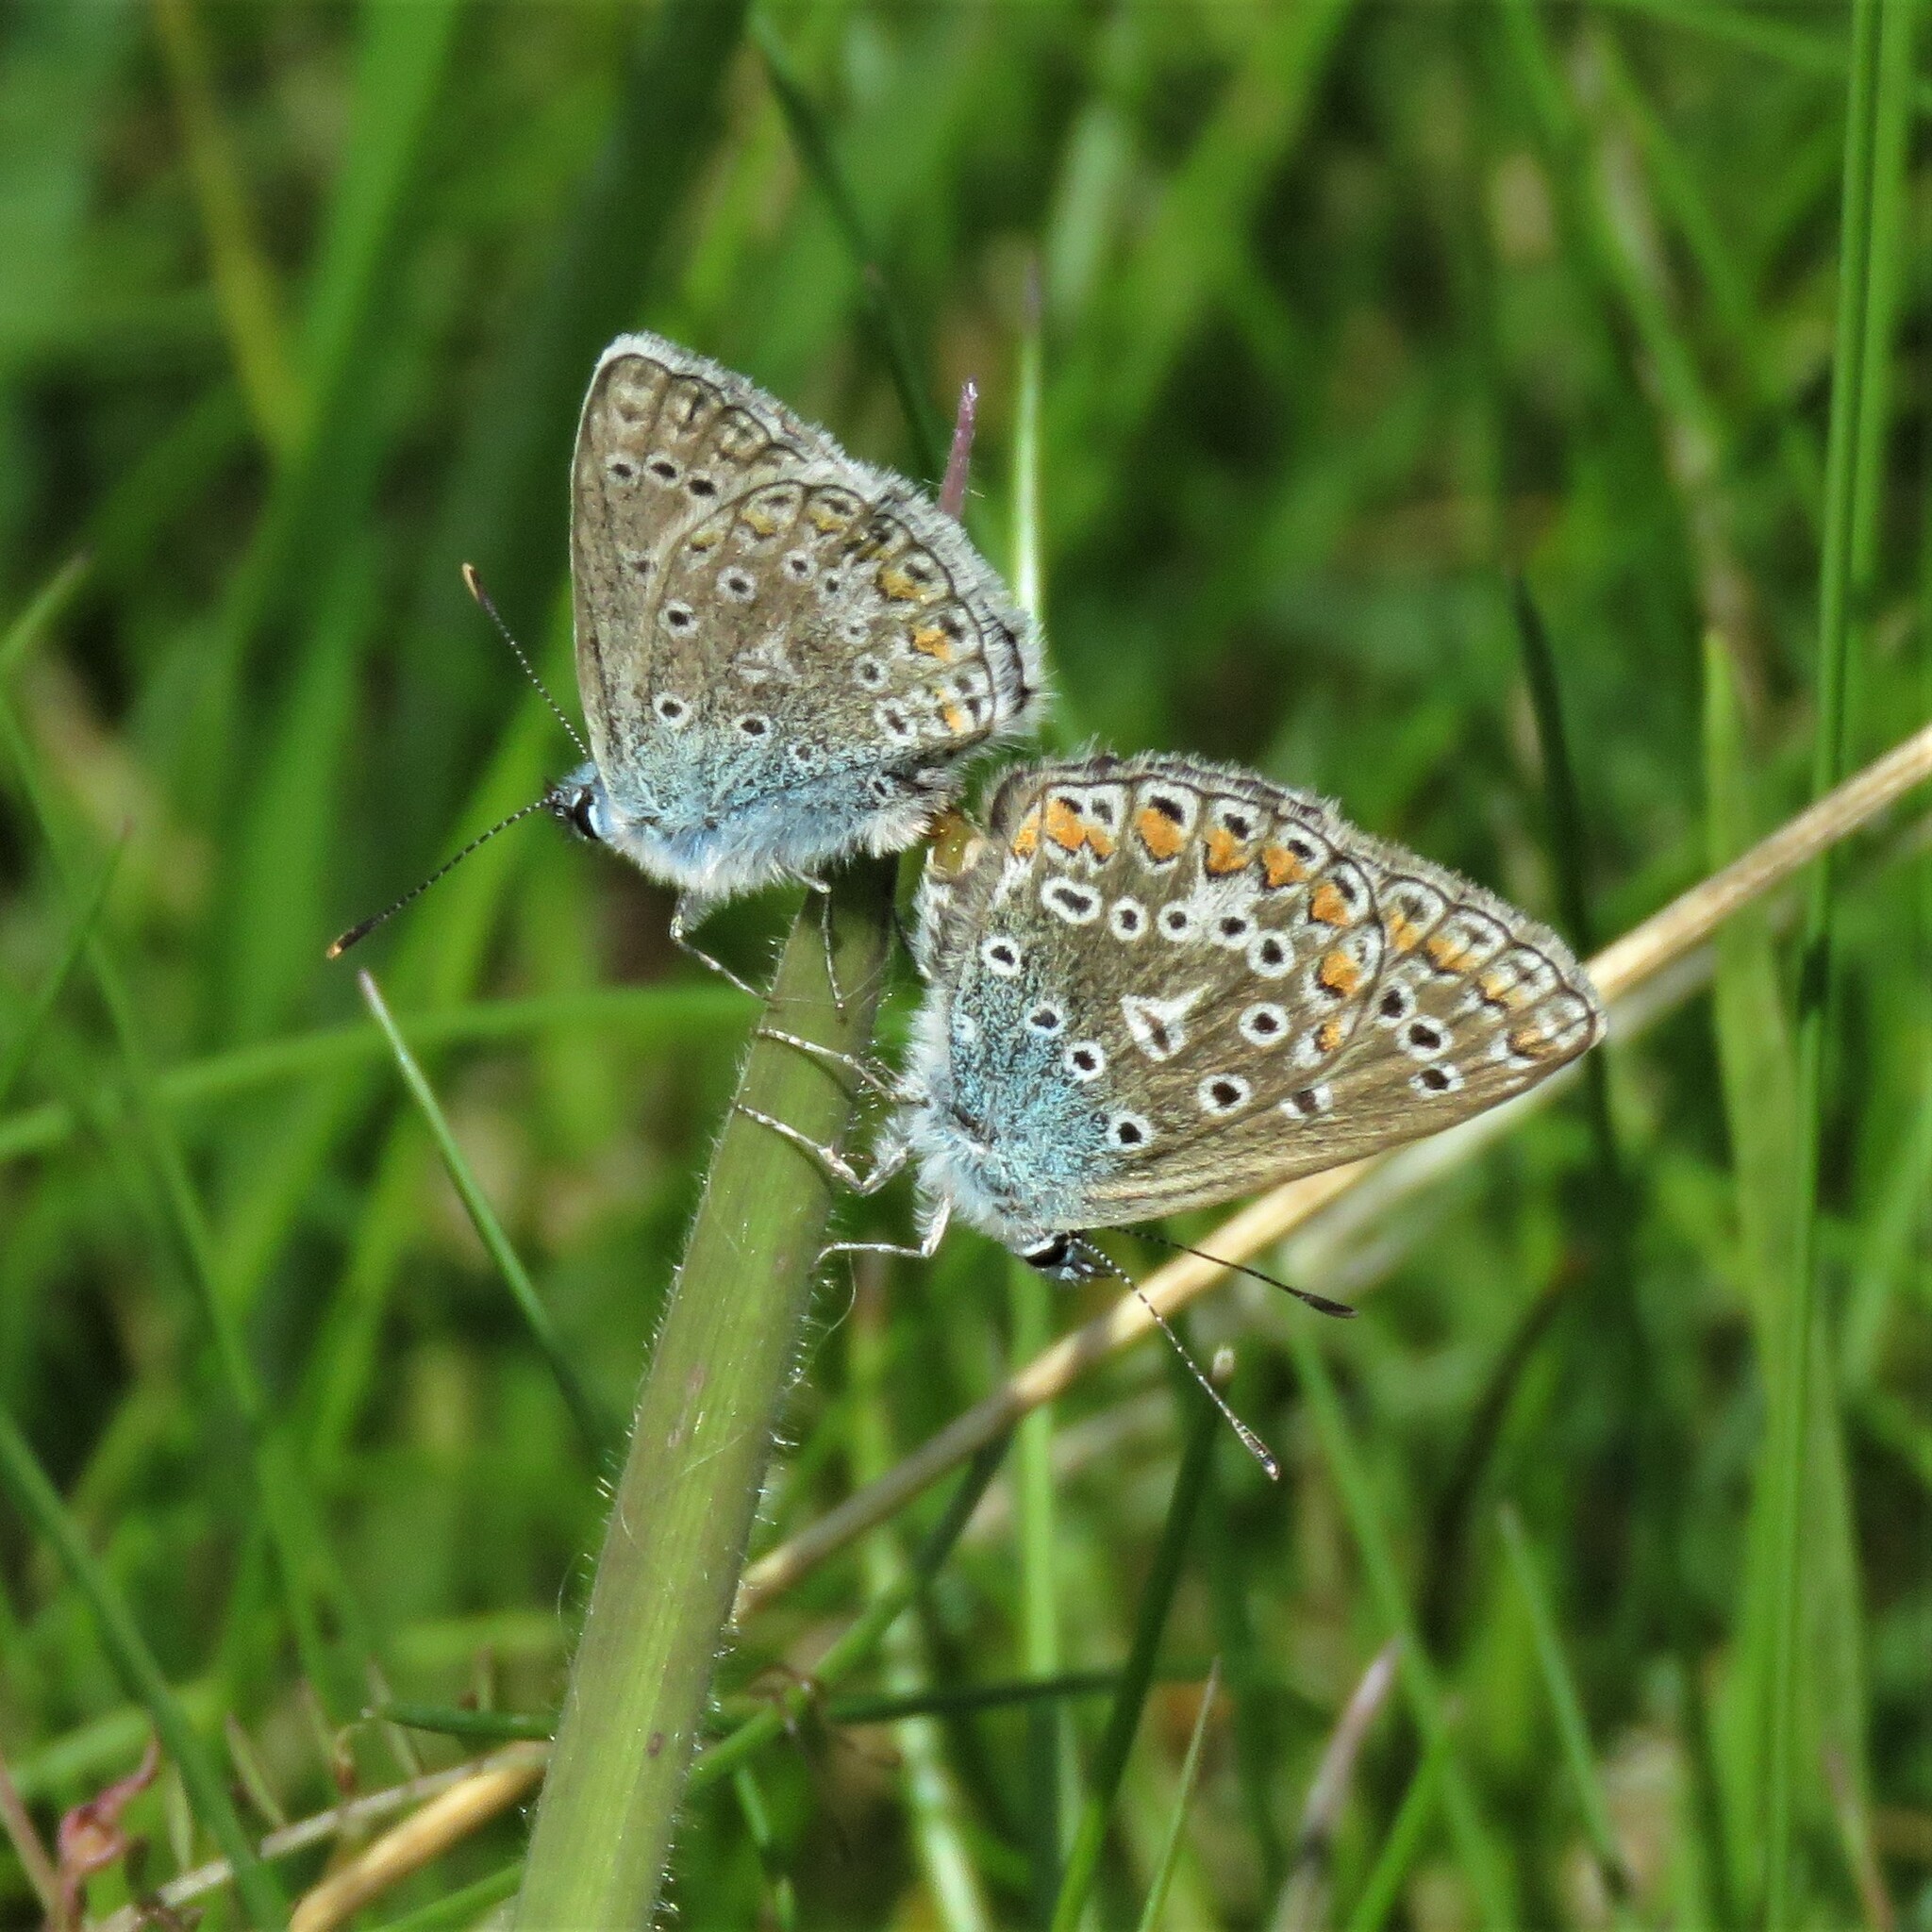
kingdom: Animalia
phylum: Arthropoda
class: Insecta
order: Lepidoptera
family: Lycaenidae
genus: Polyommatus
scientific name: Polyommatus icarus
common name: Common blue
